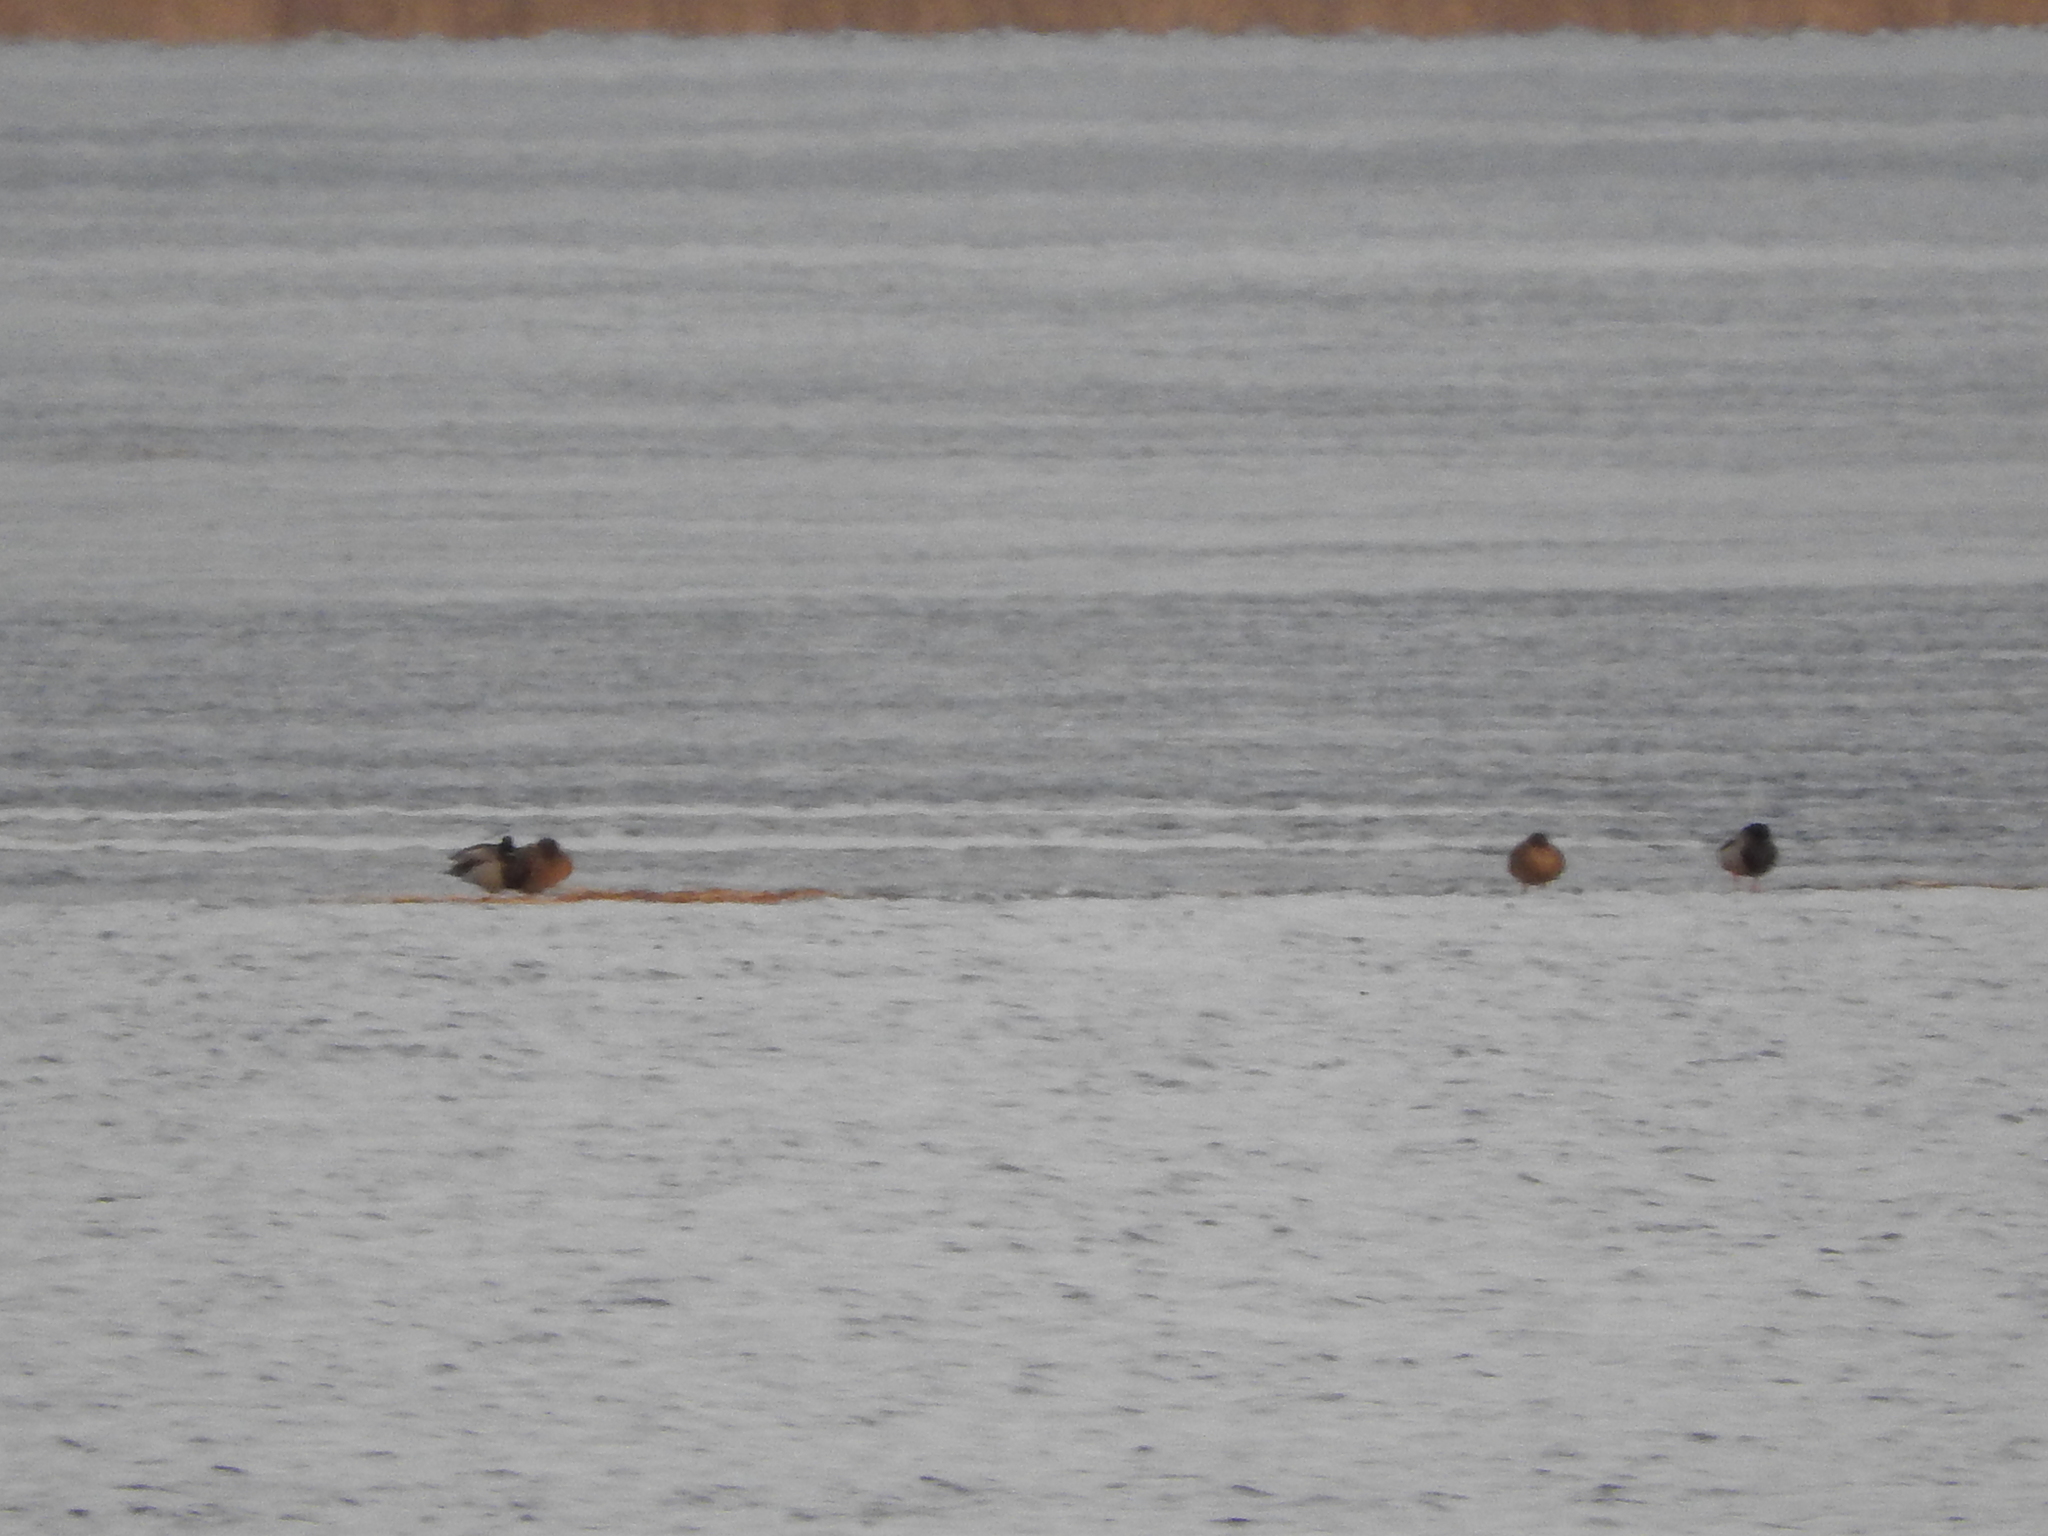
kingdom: Animalia
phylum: Chordata
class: Aves
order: Anseriformes
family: Anatidae
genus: Anas
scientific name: Anas platyrhynchos
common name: Mallard
